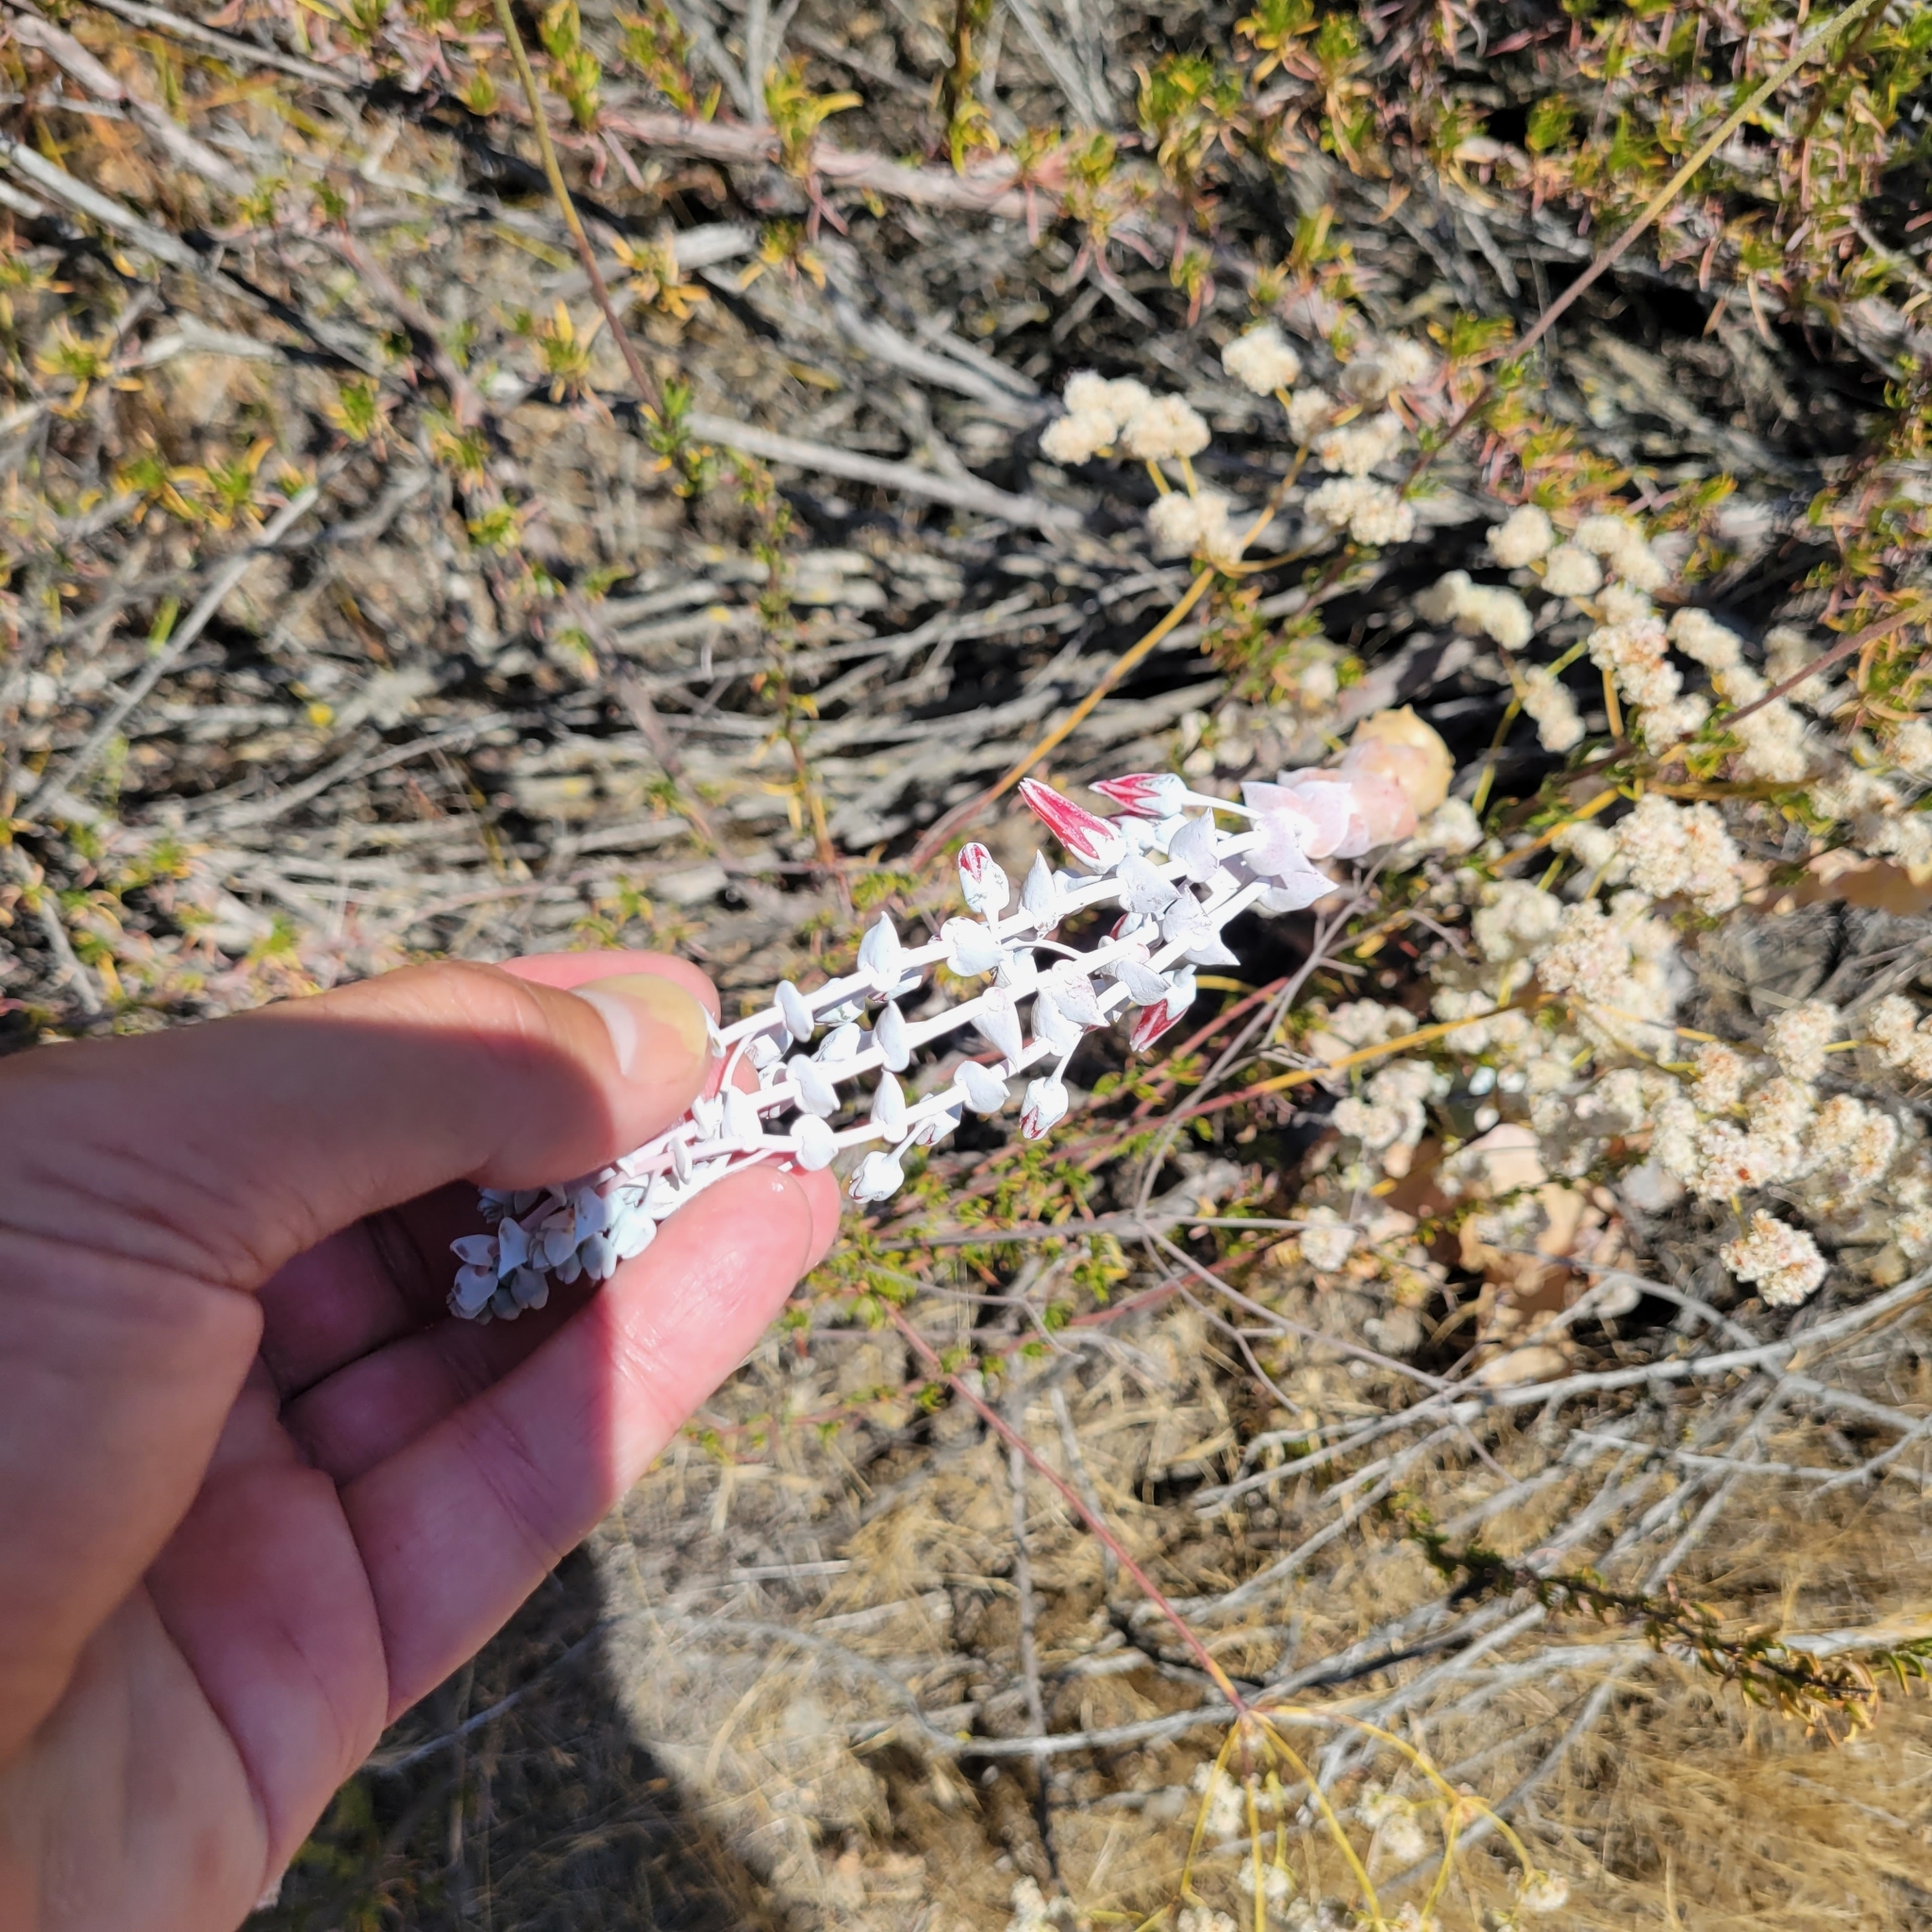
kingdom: Plantae
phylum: Tracheophyta
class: Magnoliopsida
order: Saxifragales
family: Crassulaceae
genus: Dudleya
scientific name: Dudleya pulverulenta
